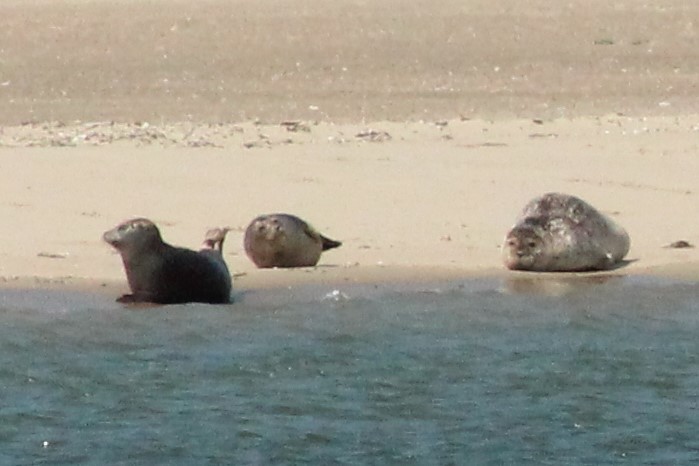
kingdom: Animalia
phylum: Chordata
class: Mammalia
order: Carnivora
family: Phocidae
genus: Phoca
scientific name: Phoca vitulina
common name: Harbor seal
